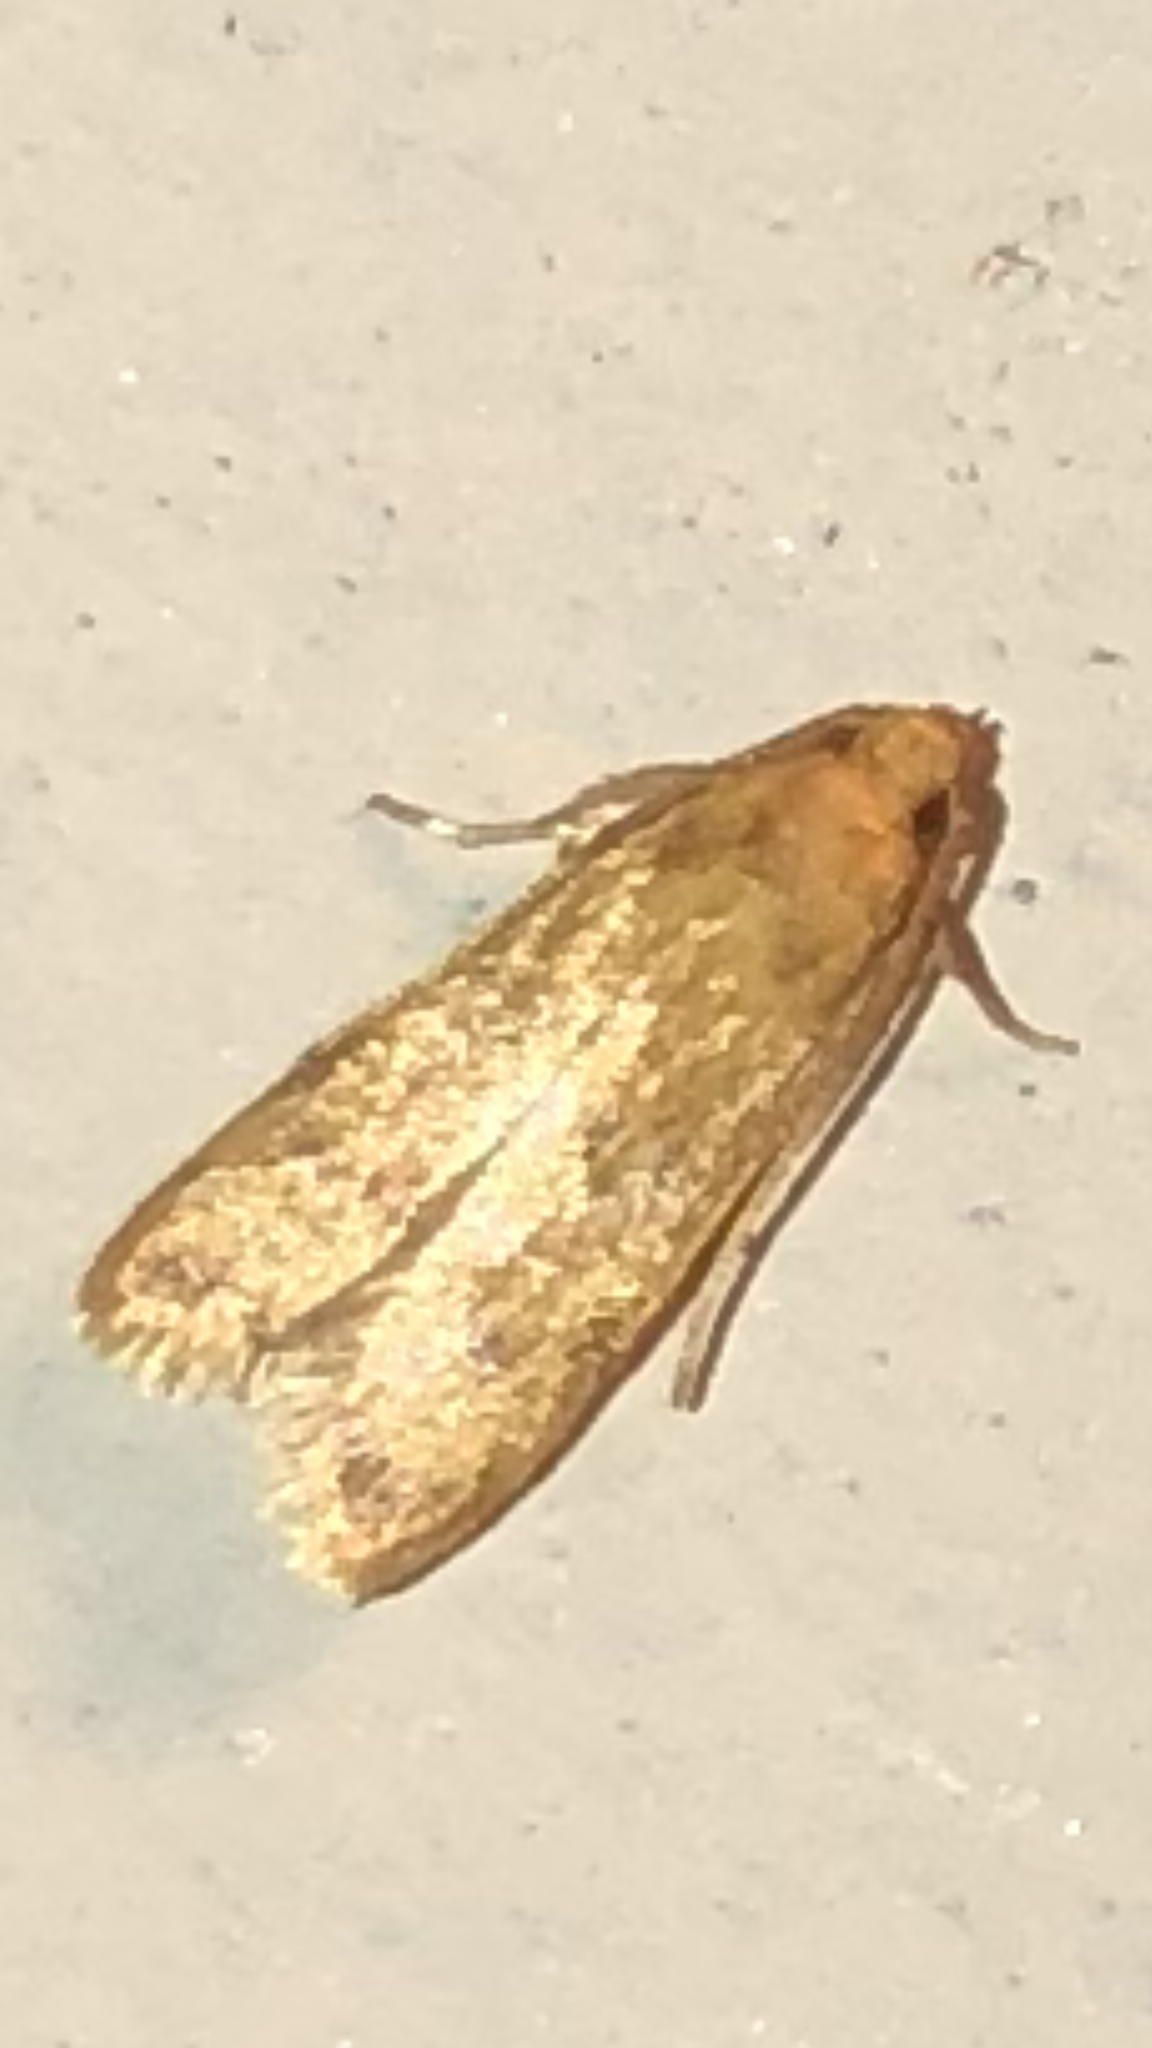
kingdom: Animalia
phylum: Arthropoda
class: Insecta
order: Lepidoptera
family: Autostichidae
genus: Gerdana
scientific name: Gerdana caritella
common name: Gerdana moth
